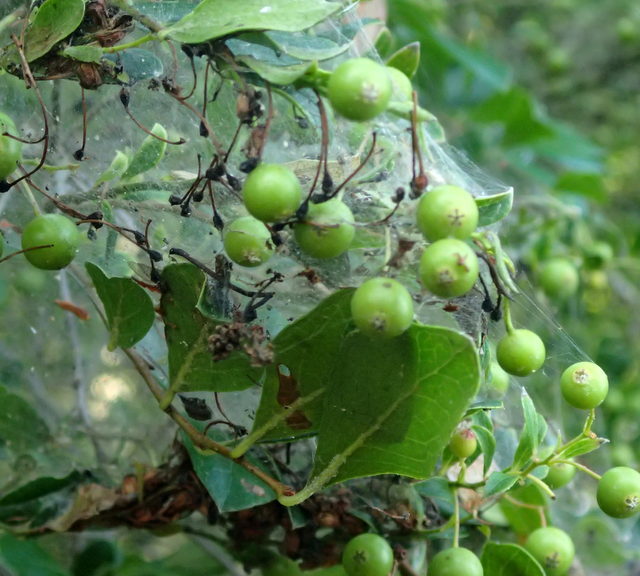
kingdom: Plantae
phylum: Tracheophyta
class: Magnoliopsida
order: Ericales
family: Ericaceae
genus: Vaccinium
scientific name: Vaccinium arboreum
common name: Farkleberry
